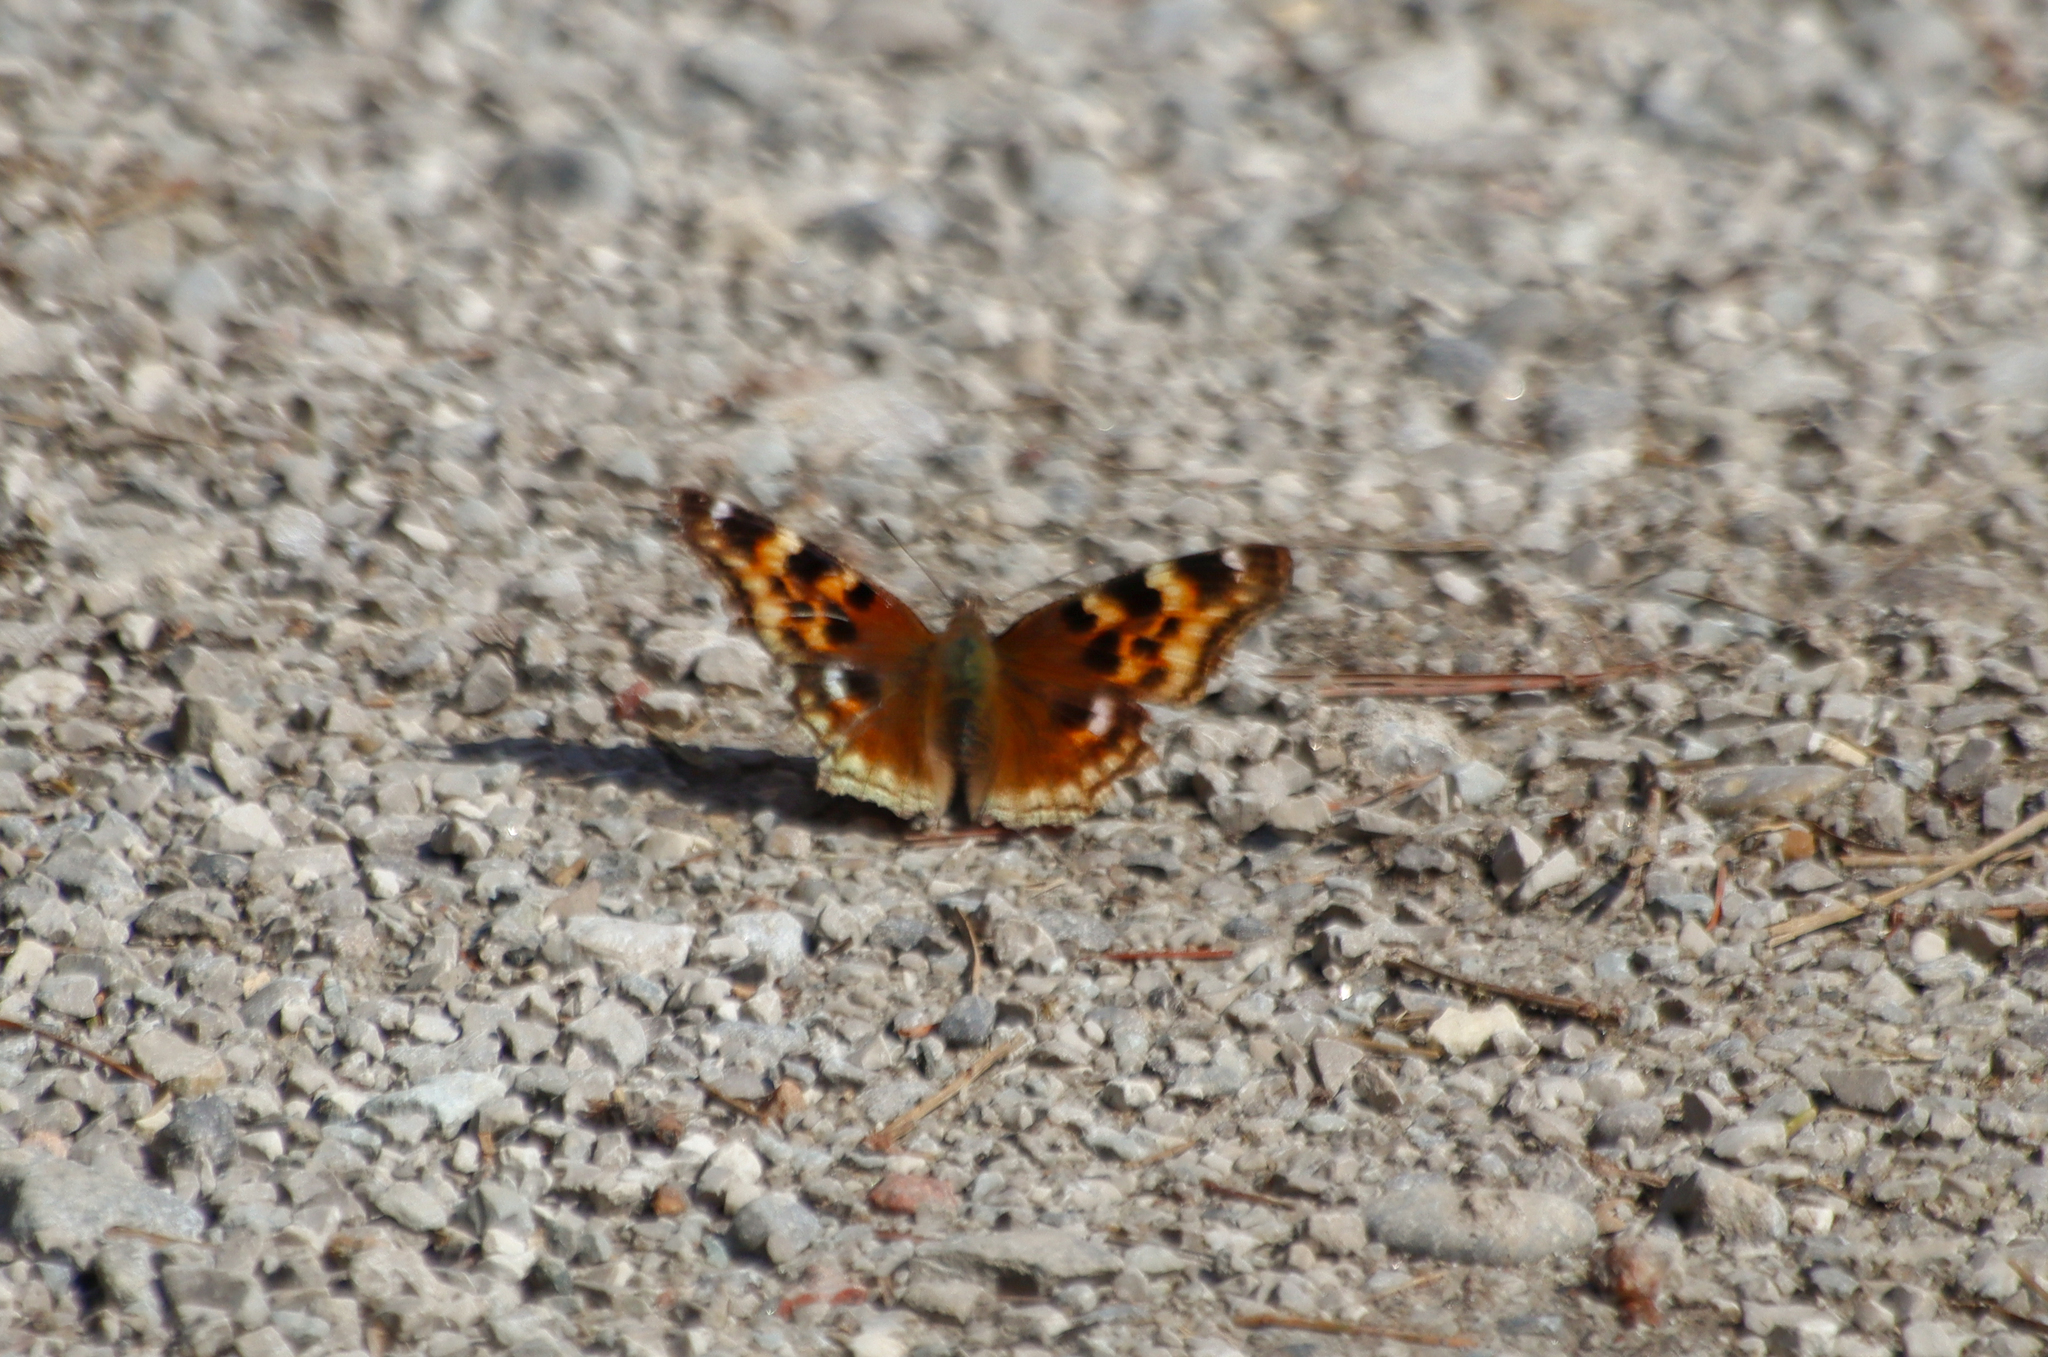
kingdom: Animalia
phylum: Arthropoda
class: Insecta
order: Lepidoptera
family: Nymphalidae
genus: Polygonia
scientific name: Polygonia vaualbum
